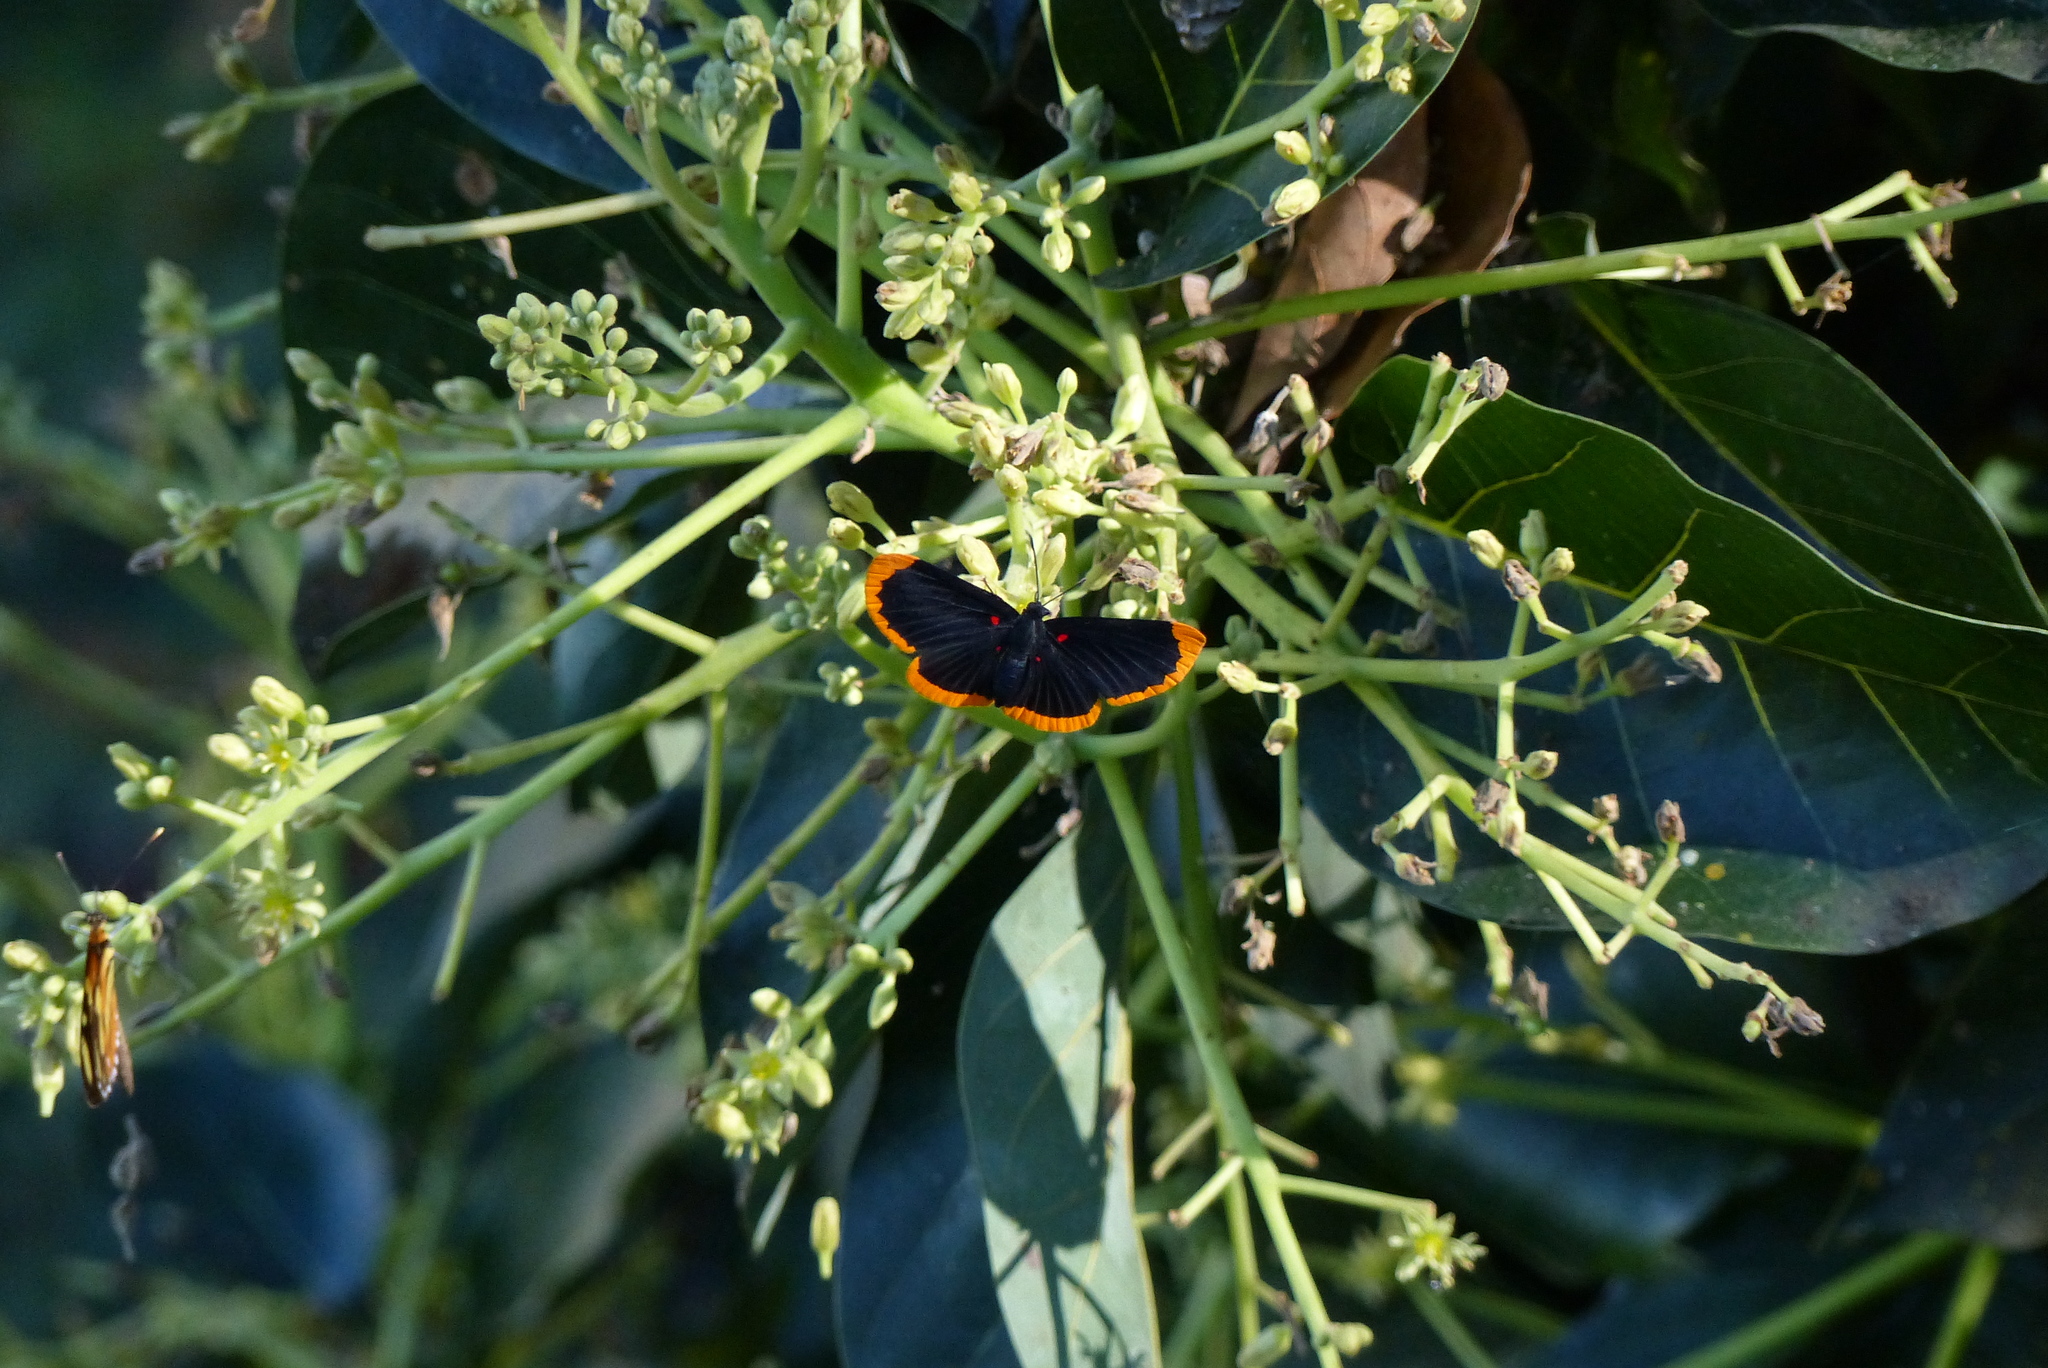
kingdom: Animalia
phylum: Arthropoda
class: Insecta
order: Lepidoptera
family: Lycaenidae
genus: Melanis
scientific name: Melanis smithiae
